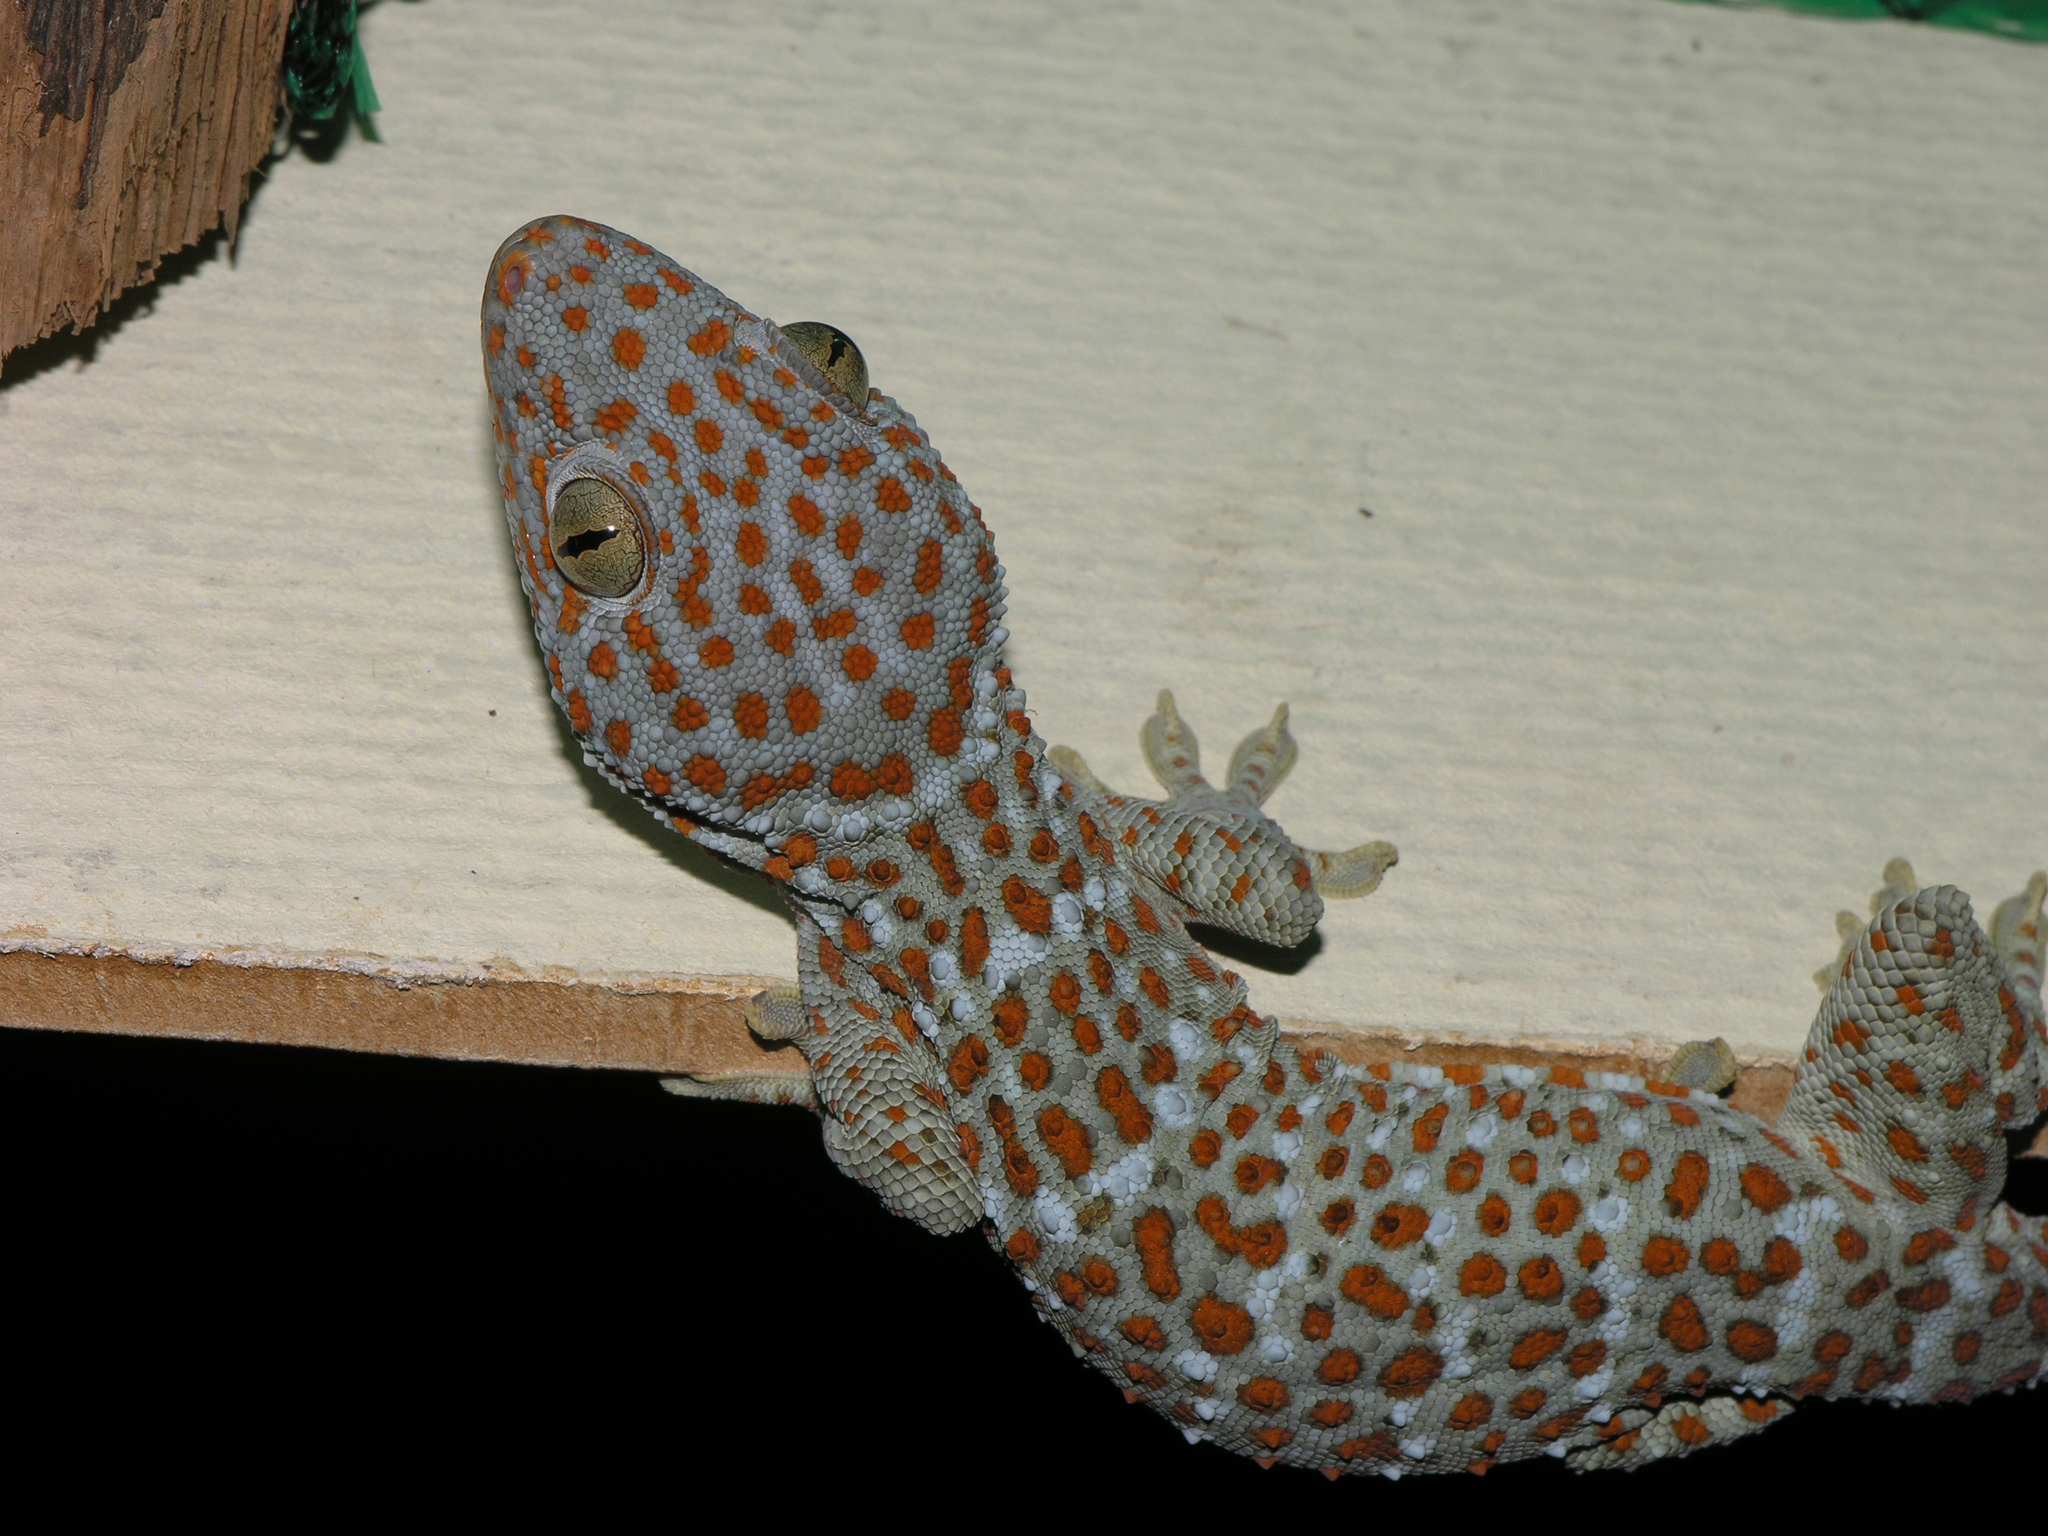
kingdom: Animalia
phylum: Chordata
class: Squamata
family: Gekkonidae
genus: Gekko
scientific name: Gekko gecko
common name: Tokay gecko
